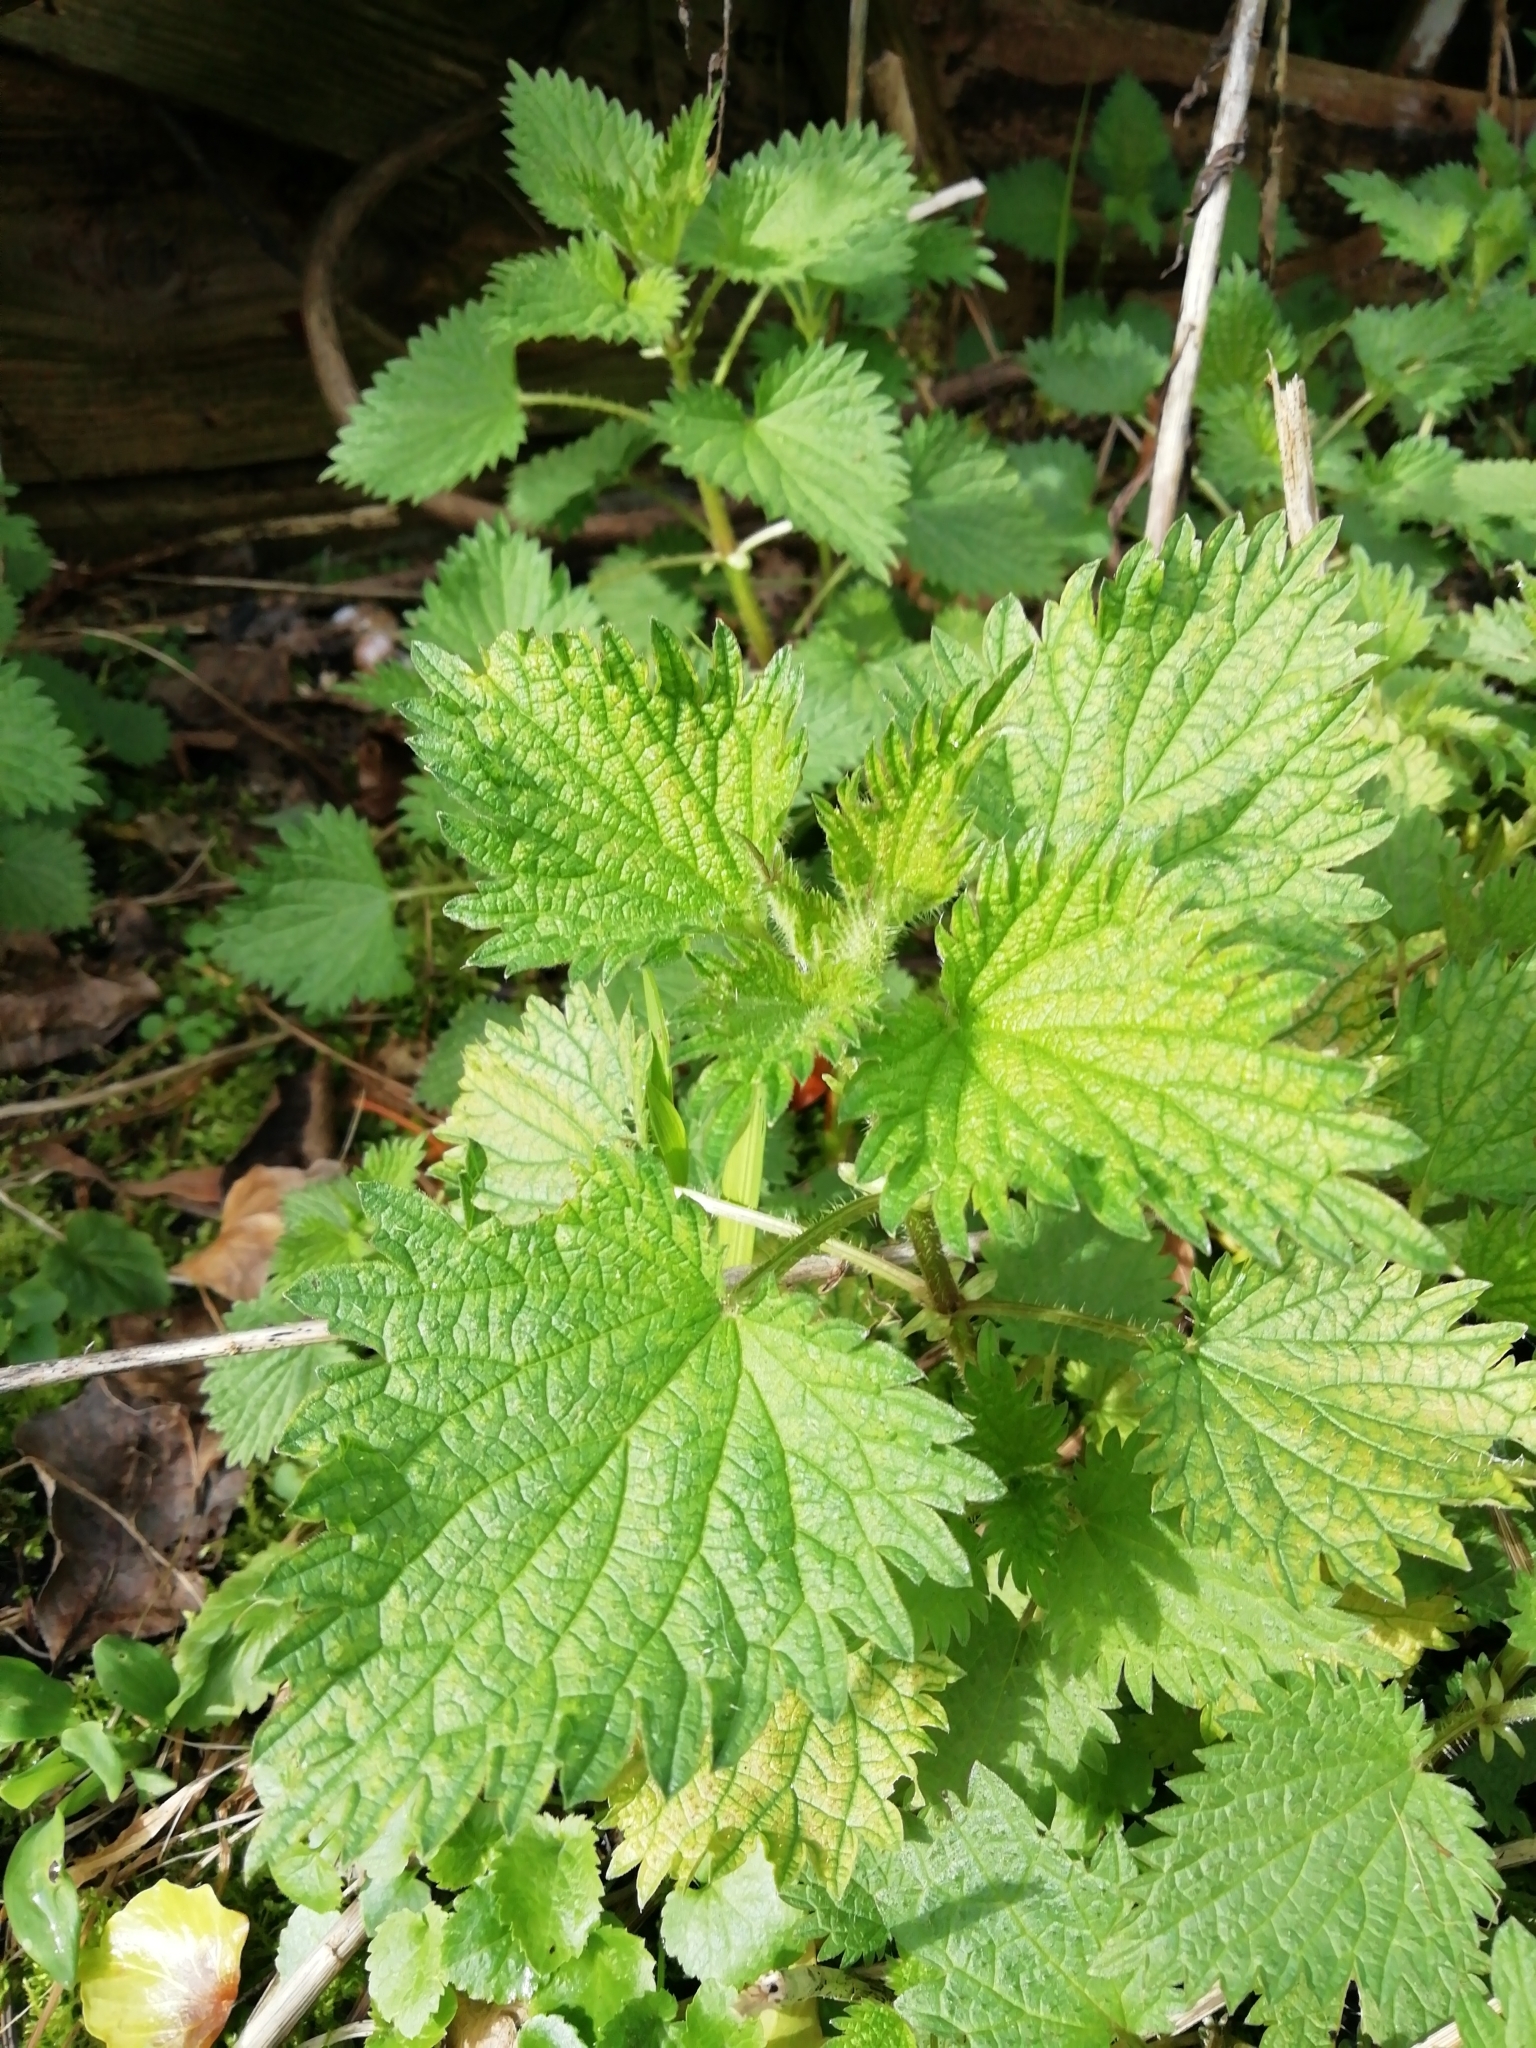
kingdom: Plantae
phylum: Tracheophyta
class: Magnoliopsida
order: Rosales
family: Urticaceae
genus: Urtica
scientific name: Urtica dioica
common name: Common nettle
